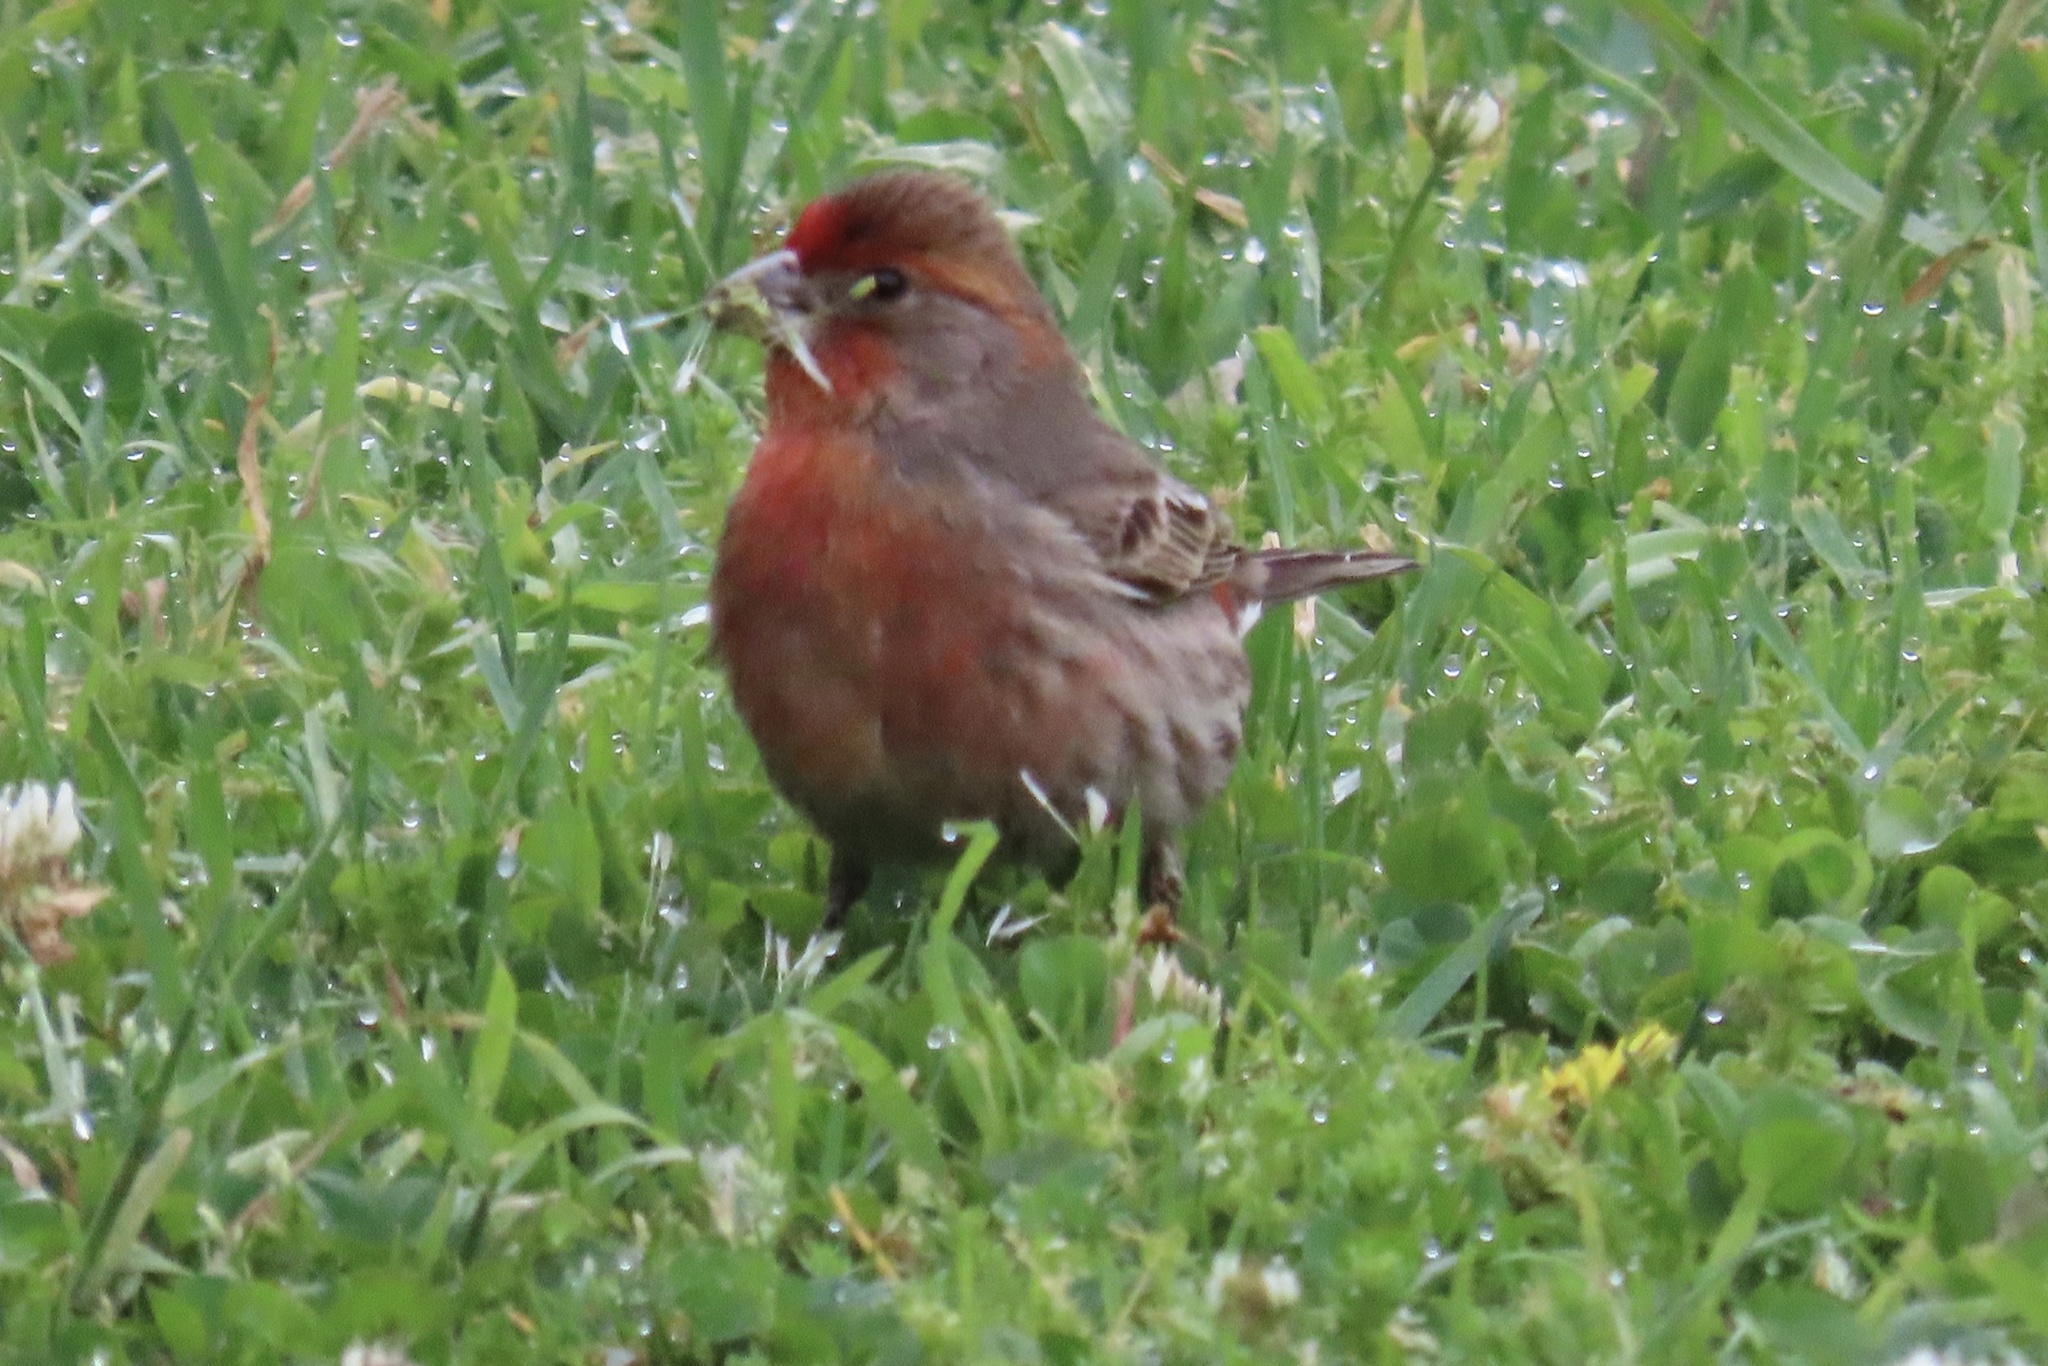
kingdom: Animalia
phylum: Chordata
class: Aves
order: Passeriformes
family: Fringillidae
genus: Haemorhous
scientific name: Haemorhous mexicanus
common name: House finch
